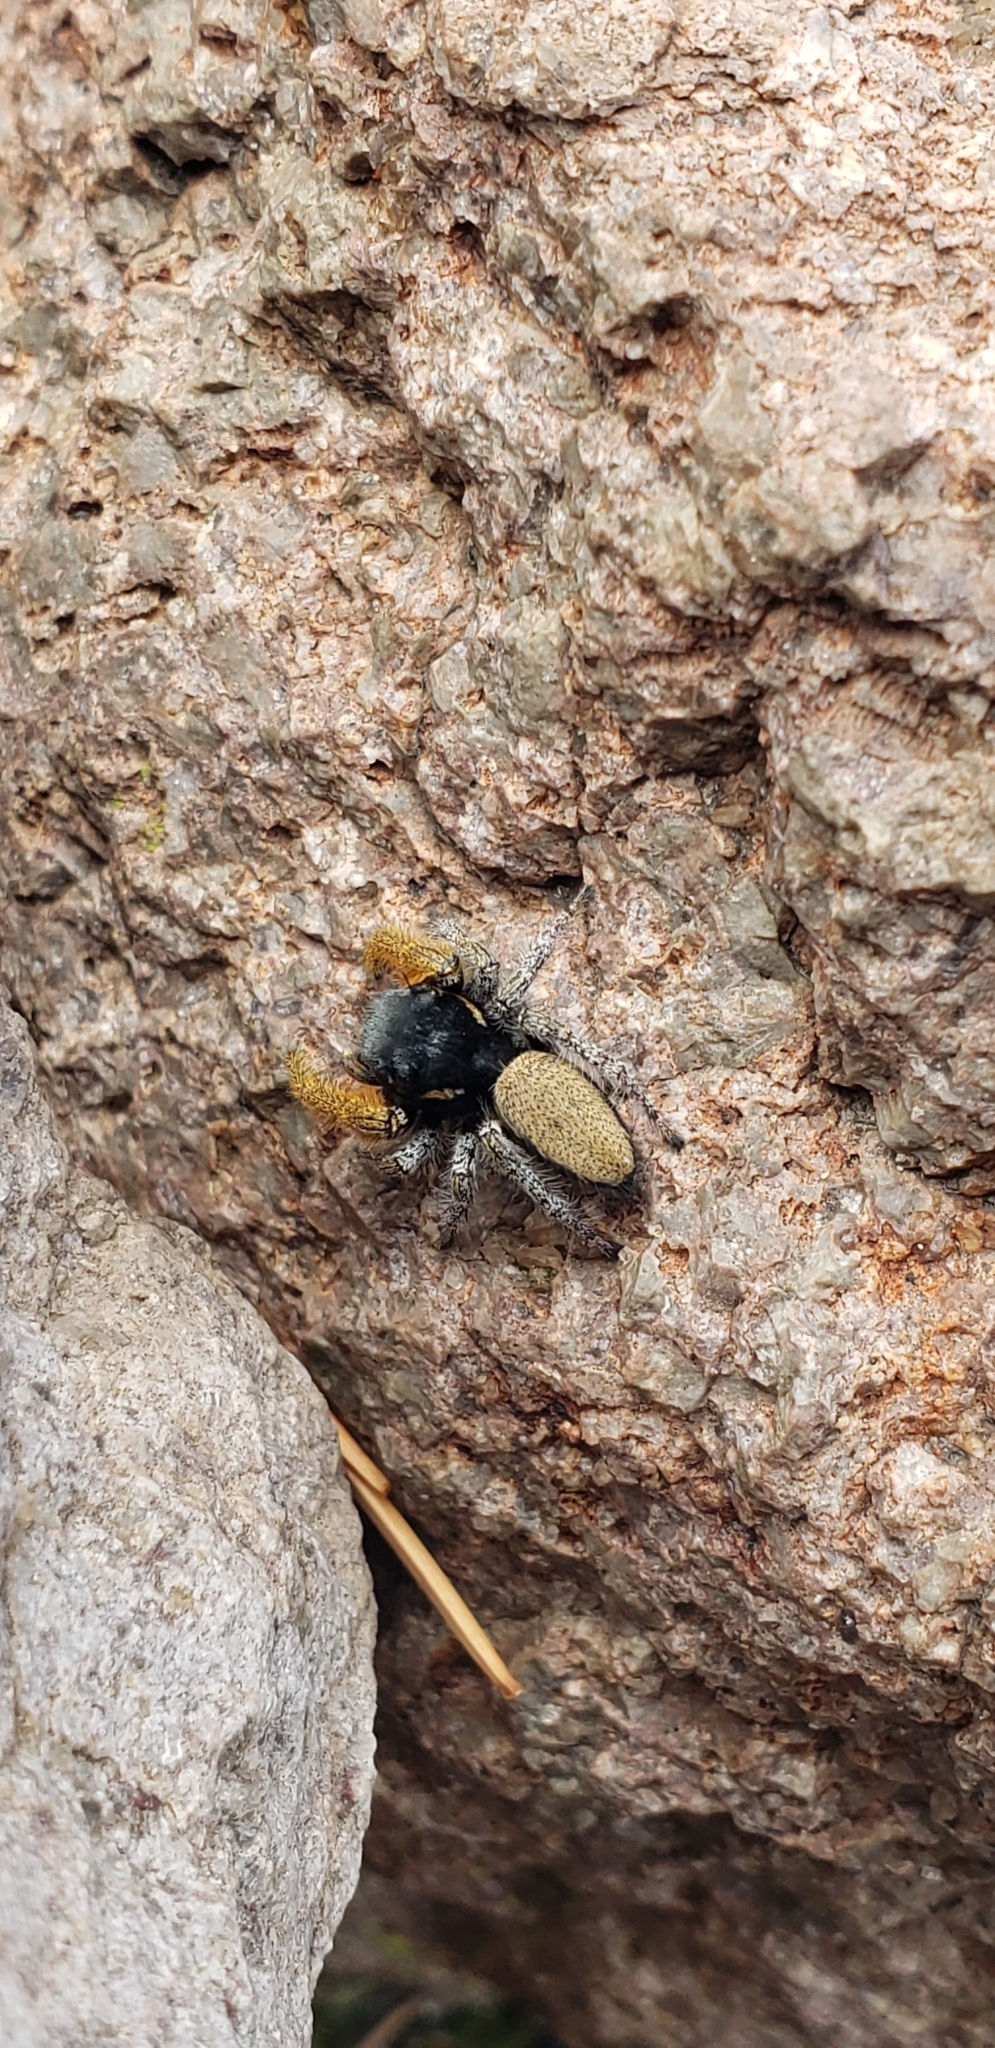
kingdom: Animalia
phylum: Arthropoda
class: Arachnida
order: Araneae
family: Salticidae
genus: Phidippus
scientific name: Phidippus arizonensis
